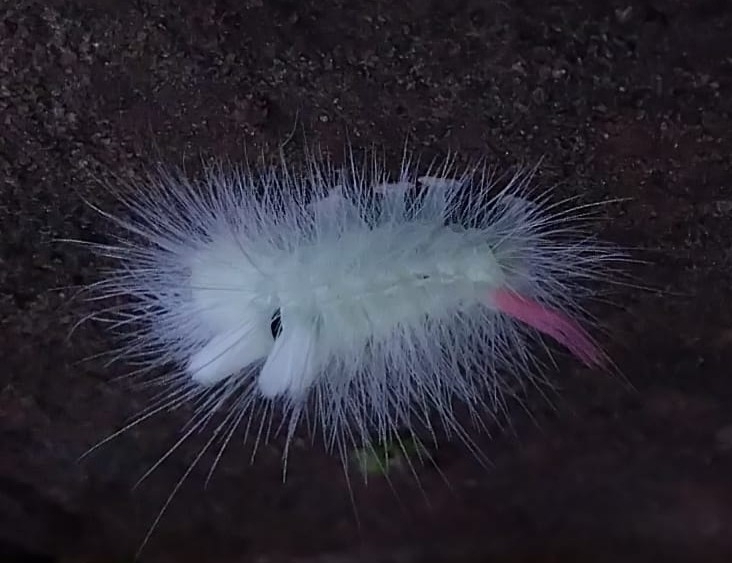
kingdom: Animalia
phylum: Arthropoda
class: Insecta
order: Lepidoptera
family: Erebidae
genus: Calliteara
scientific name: Calliteara pudibunda
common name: Pale tussock
